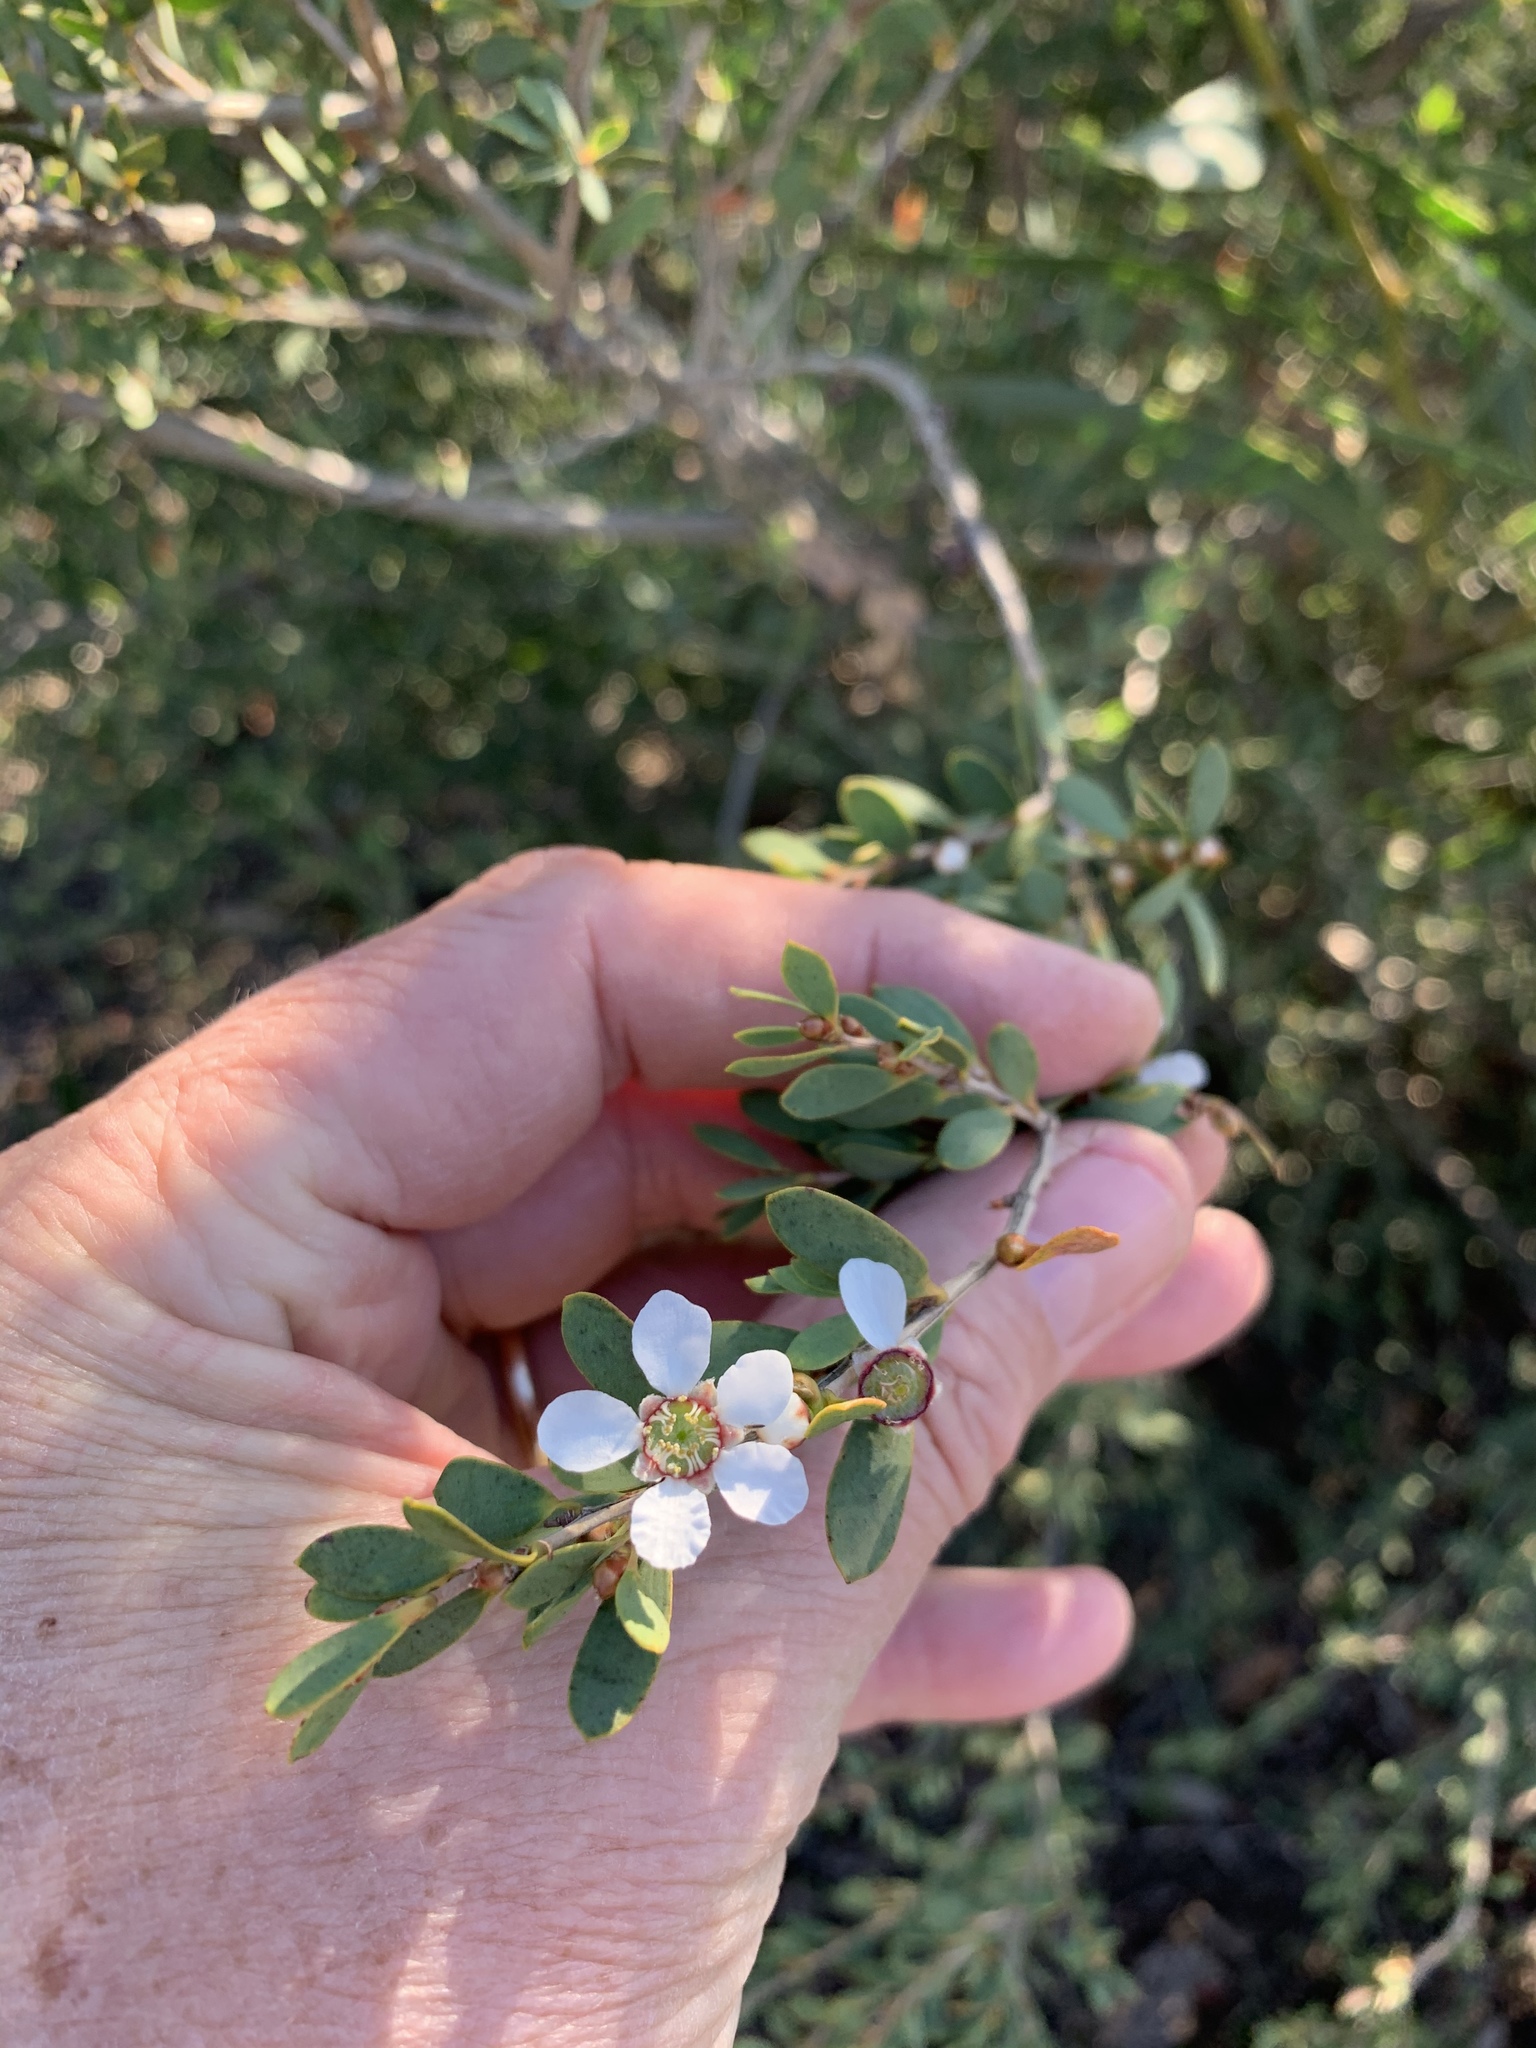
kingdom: Plantae
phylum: Tracheophyta
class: Magnoliopsida
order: Myrtales
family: Myrtaceae
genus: Leptospermum
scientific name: Leptospermum laevigatum
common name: Australian teatree
